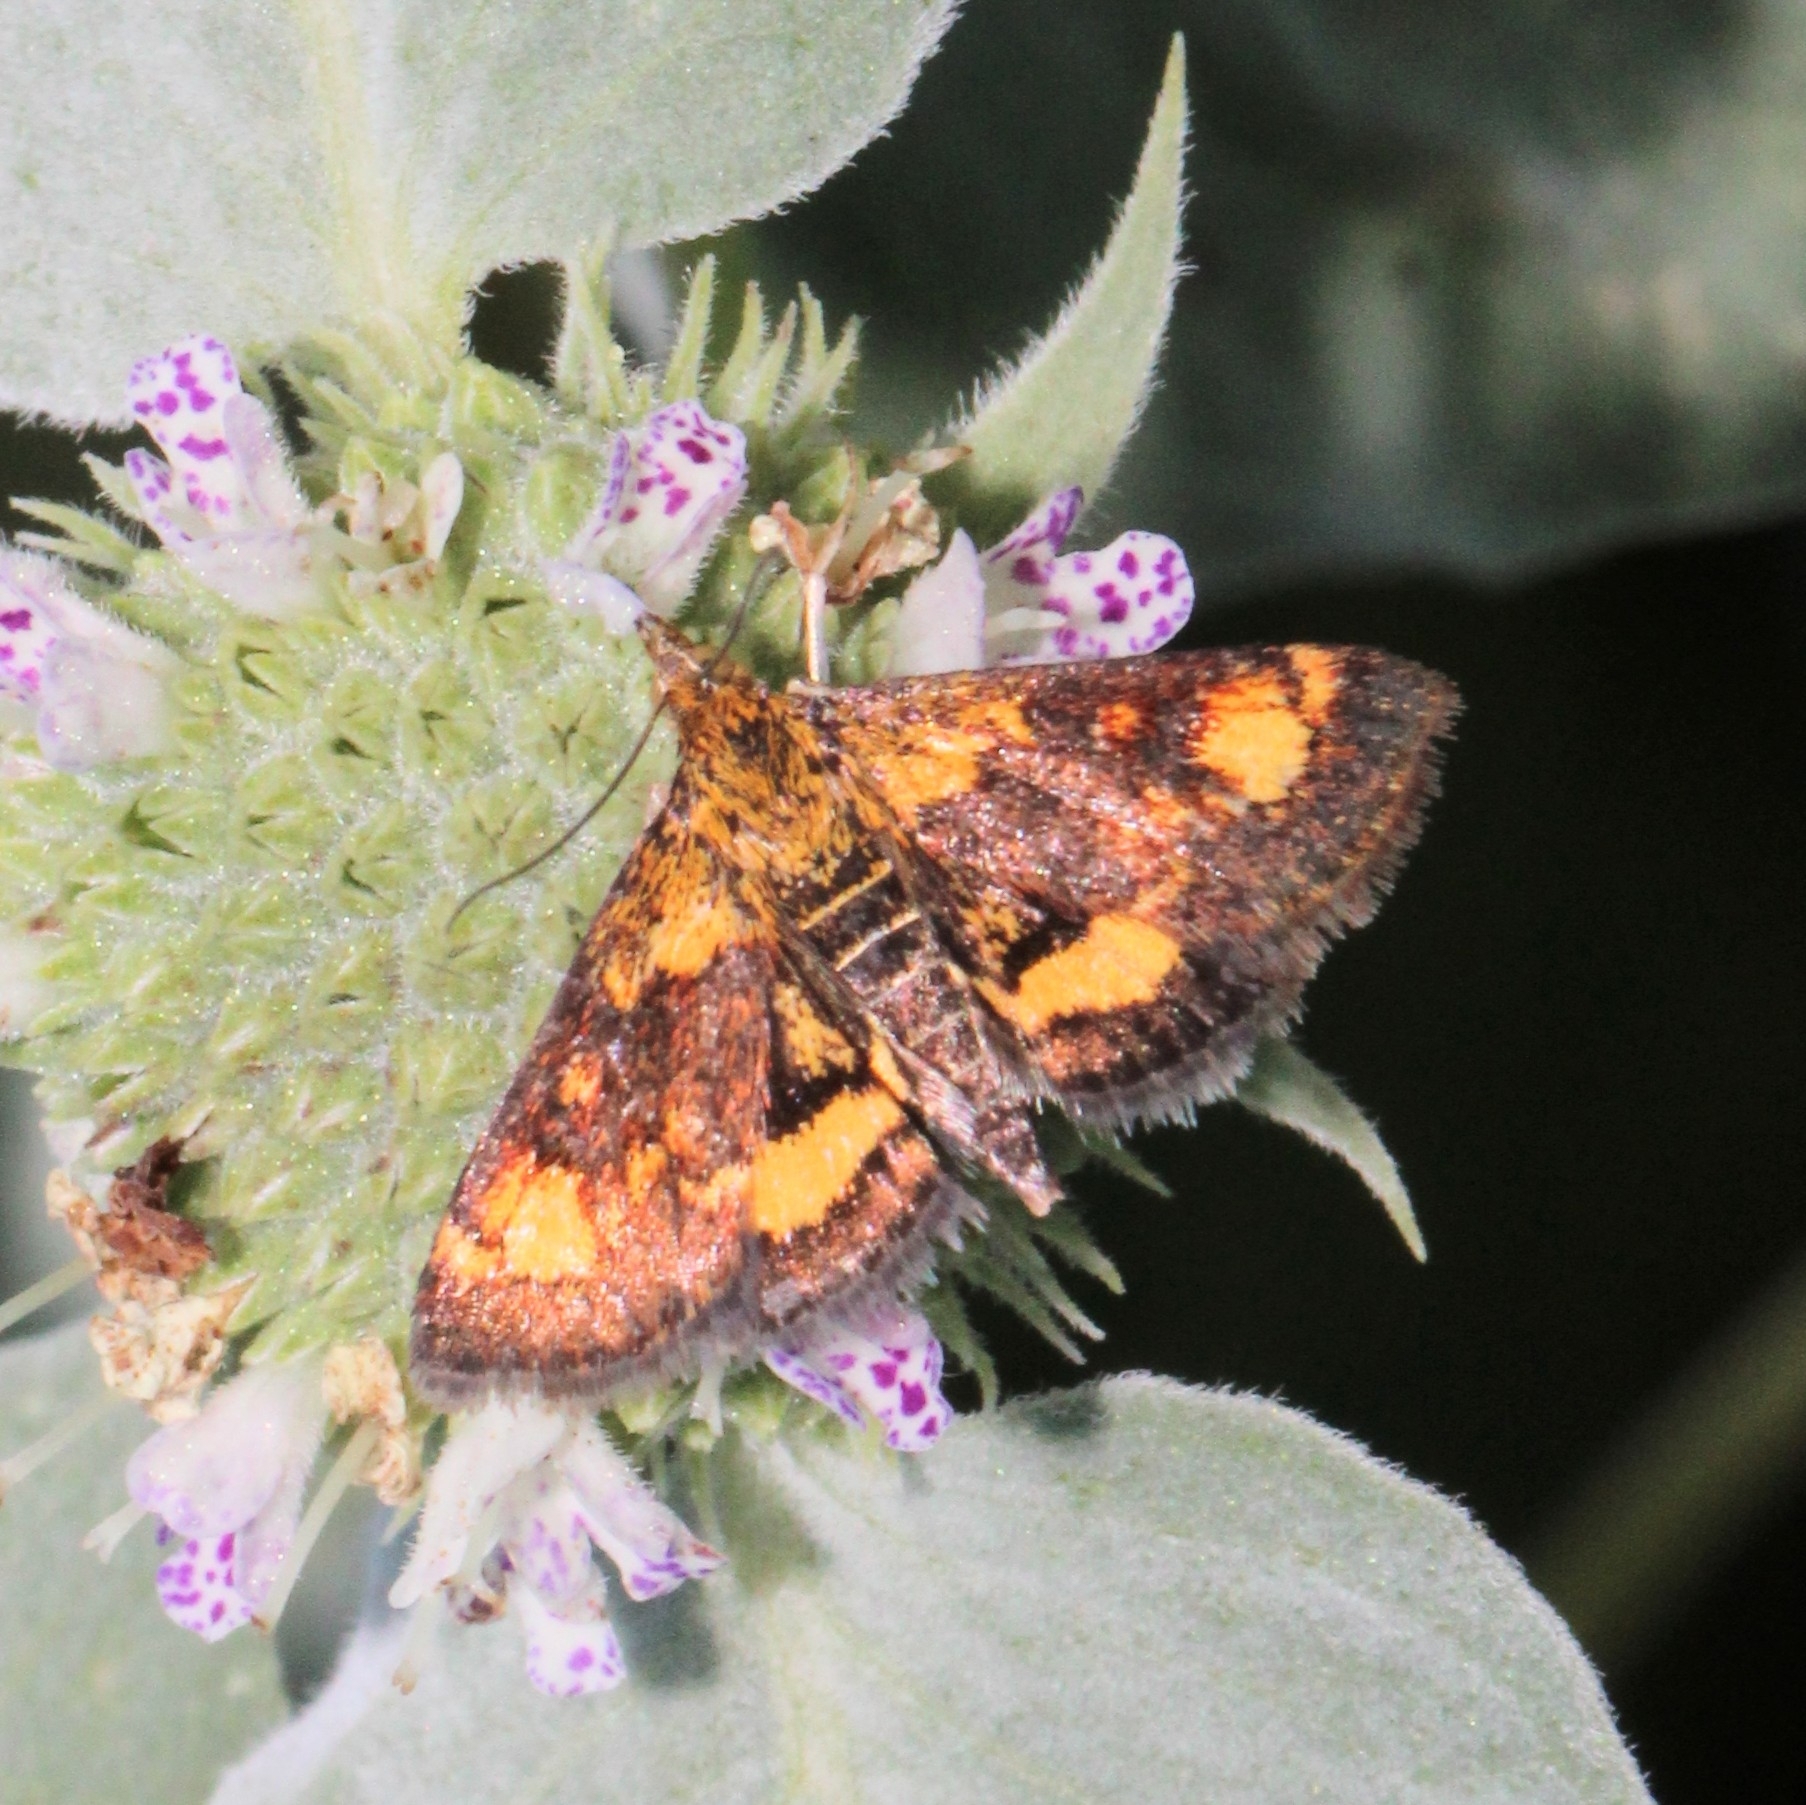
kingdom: Animalia
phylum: Arthropoda
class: Insecta
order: Lepidoptera
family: Crambidae
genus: Pyrausta
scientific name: Pyrausta orphisalis
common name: Orange mint moth
